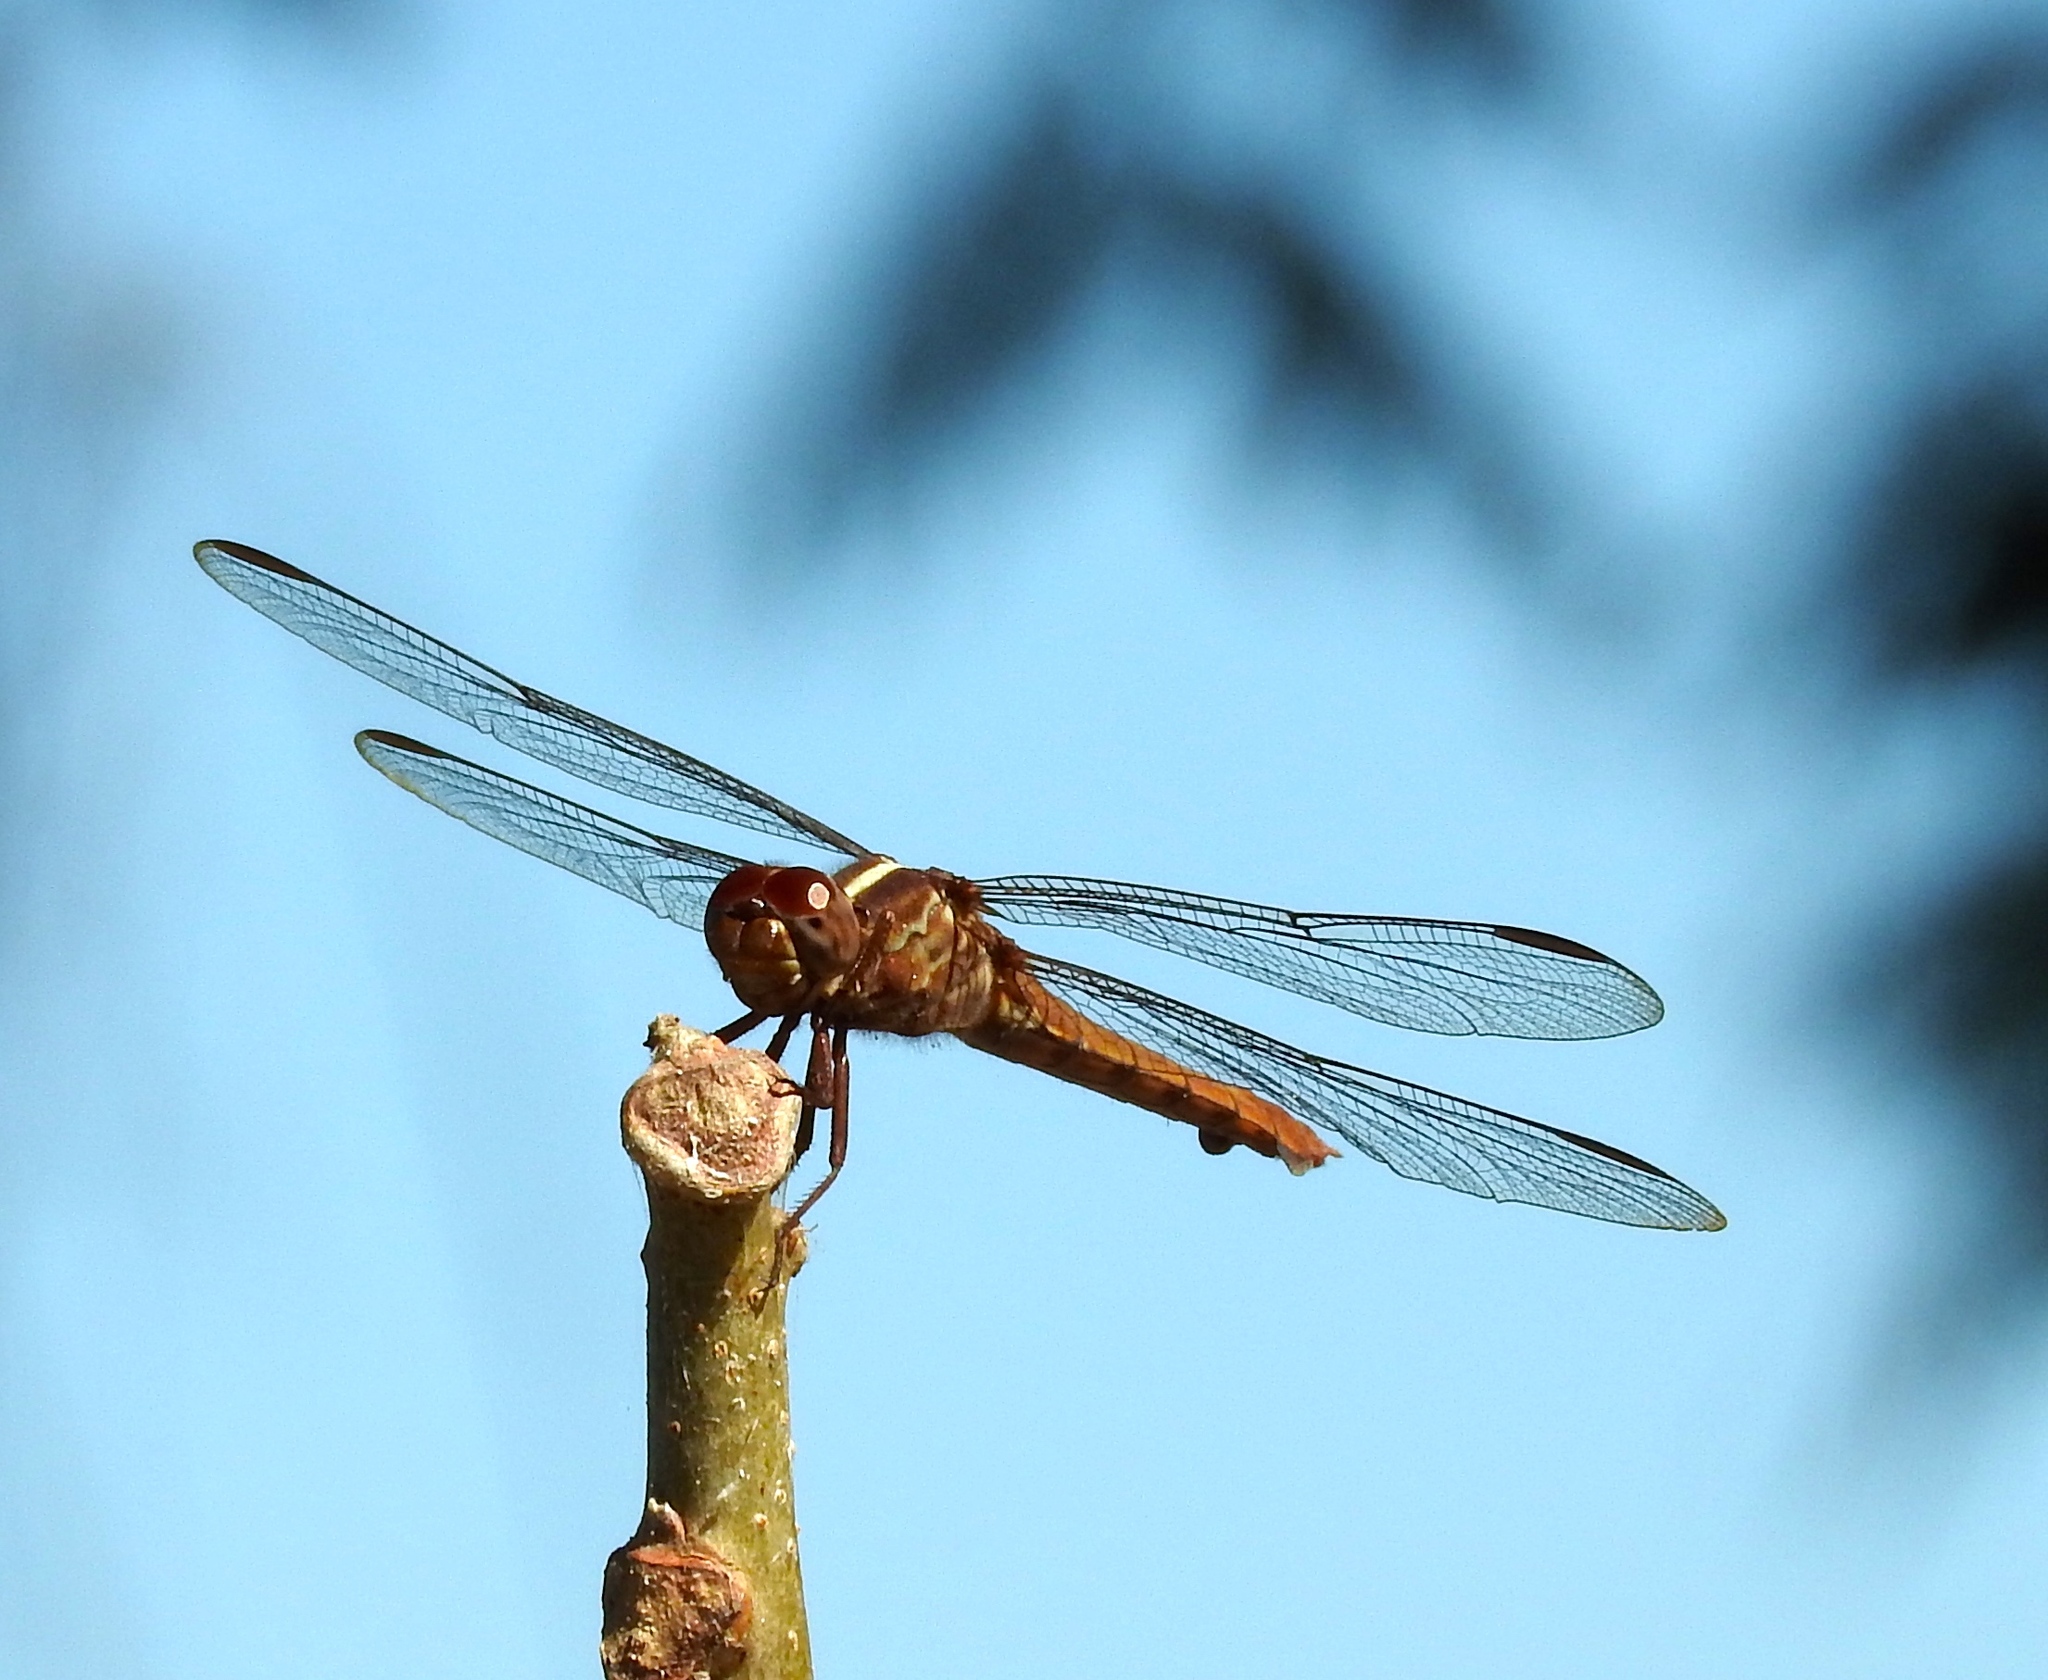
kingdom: Animalia
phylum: Arthropoda
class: Insecta
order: Odonata
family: Libellulidae
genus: Orthemis
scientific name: Orthemis discolor
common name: Carmine skimmer
